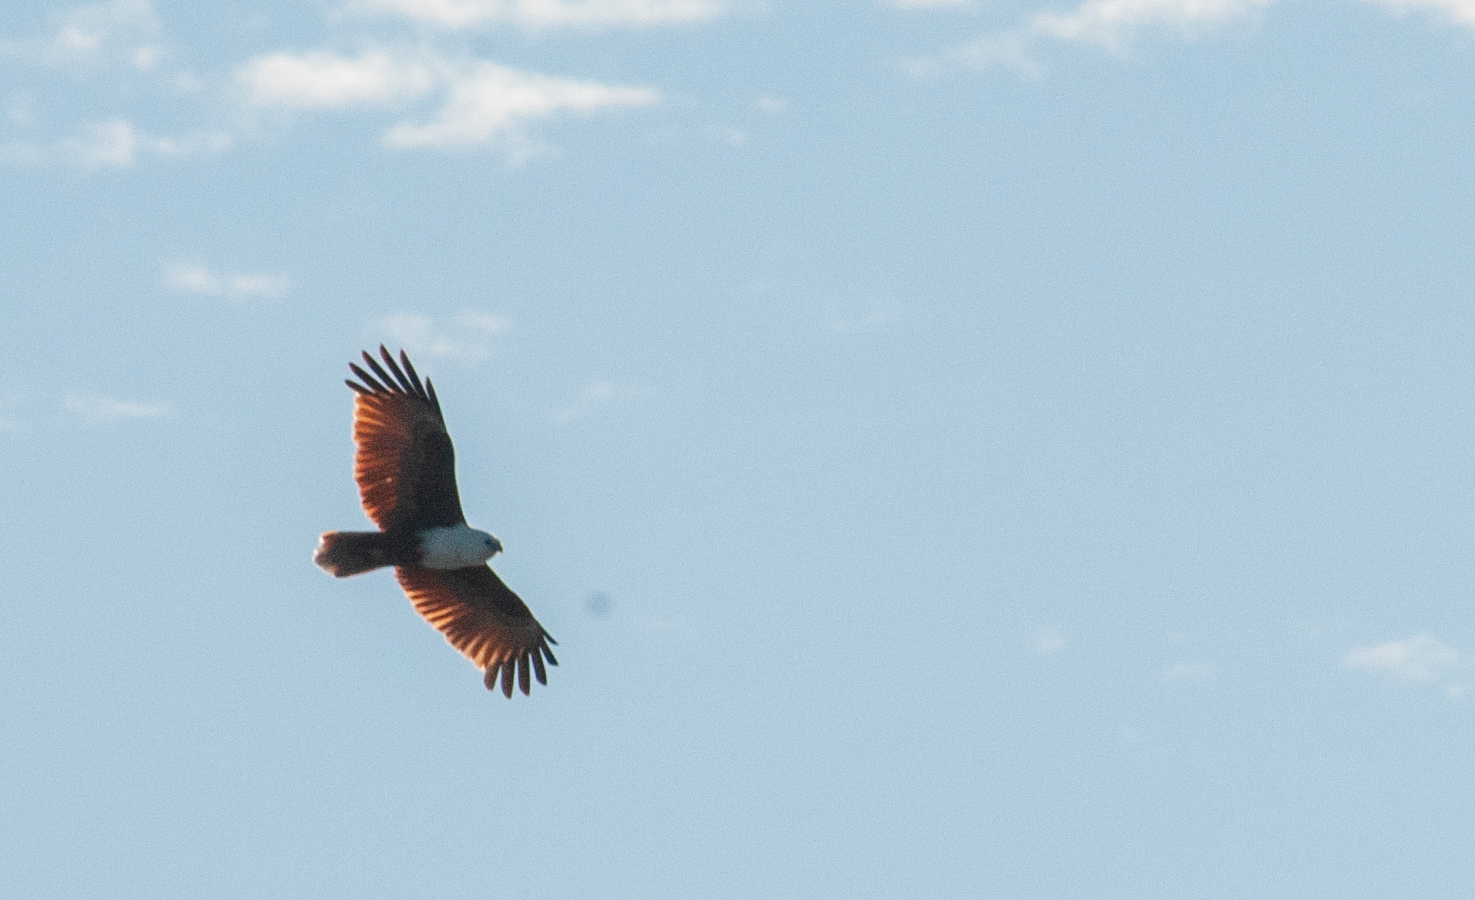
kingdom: Animalia
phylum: Chordata
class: Aves
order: Accipitriformes
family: Accipitridae
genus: Haliastur
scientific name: Haliastur indus
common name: Brahminy kite
